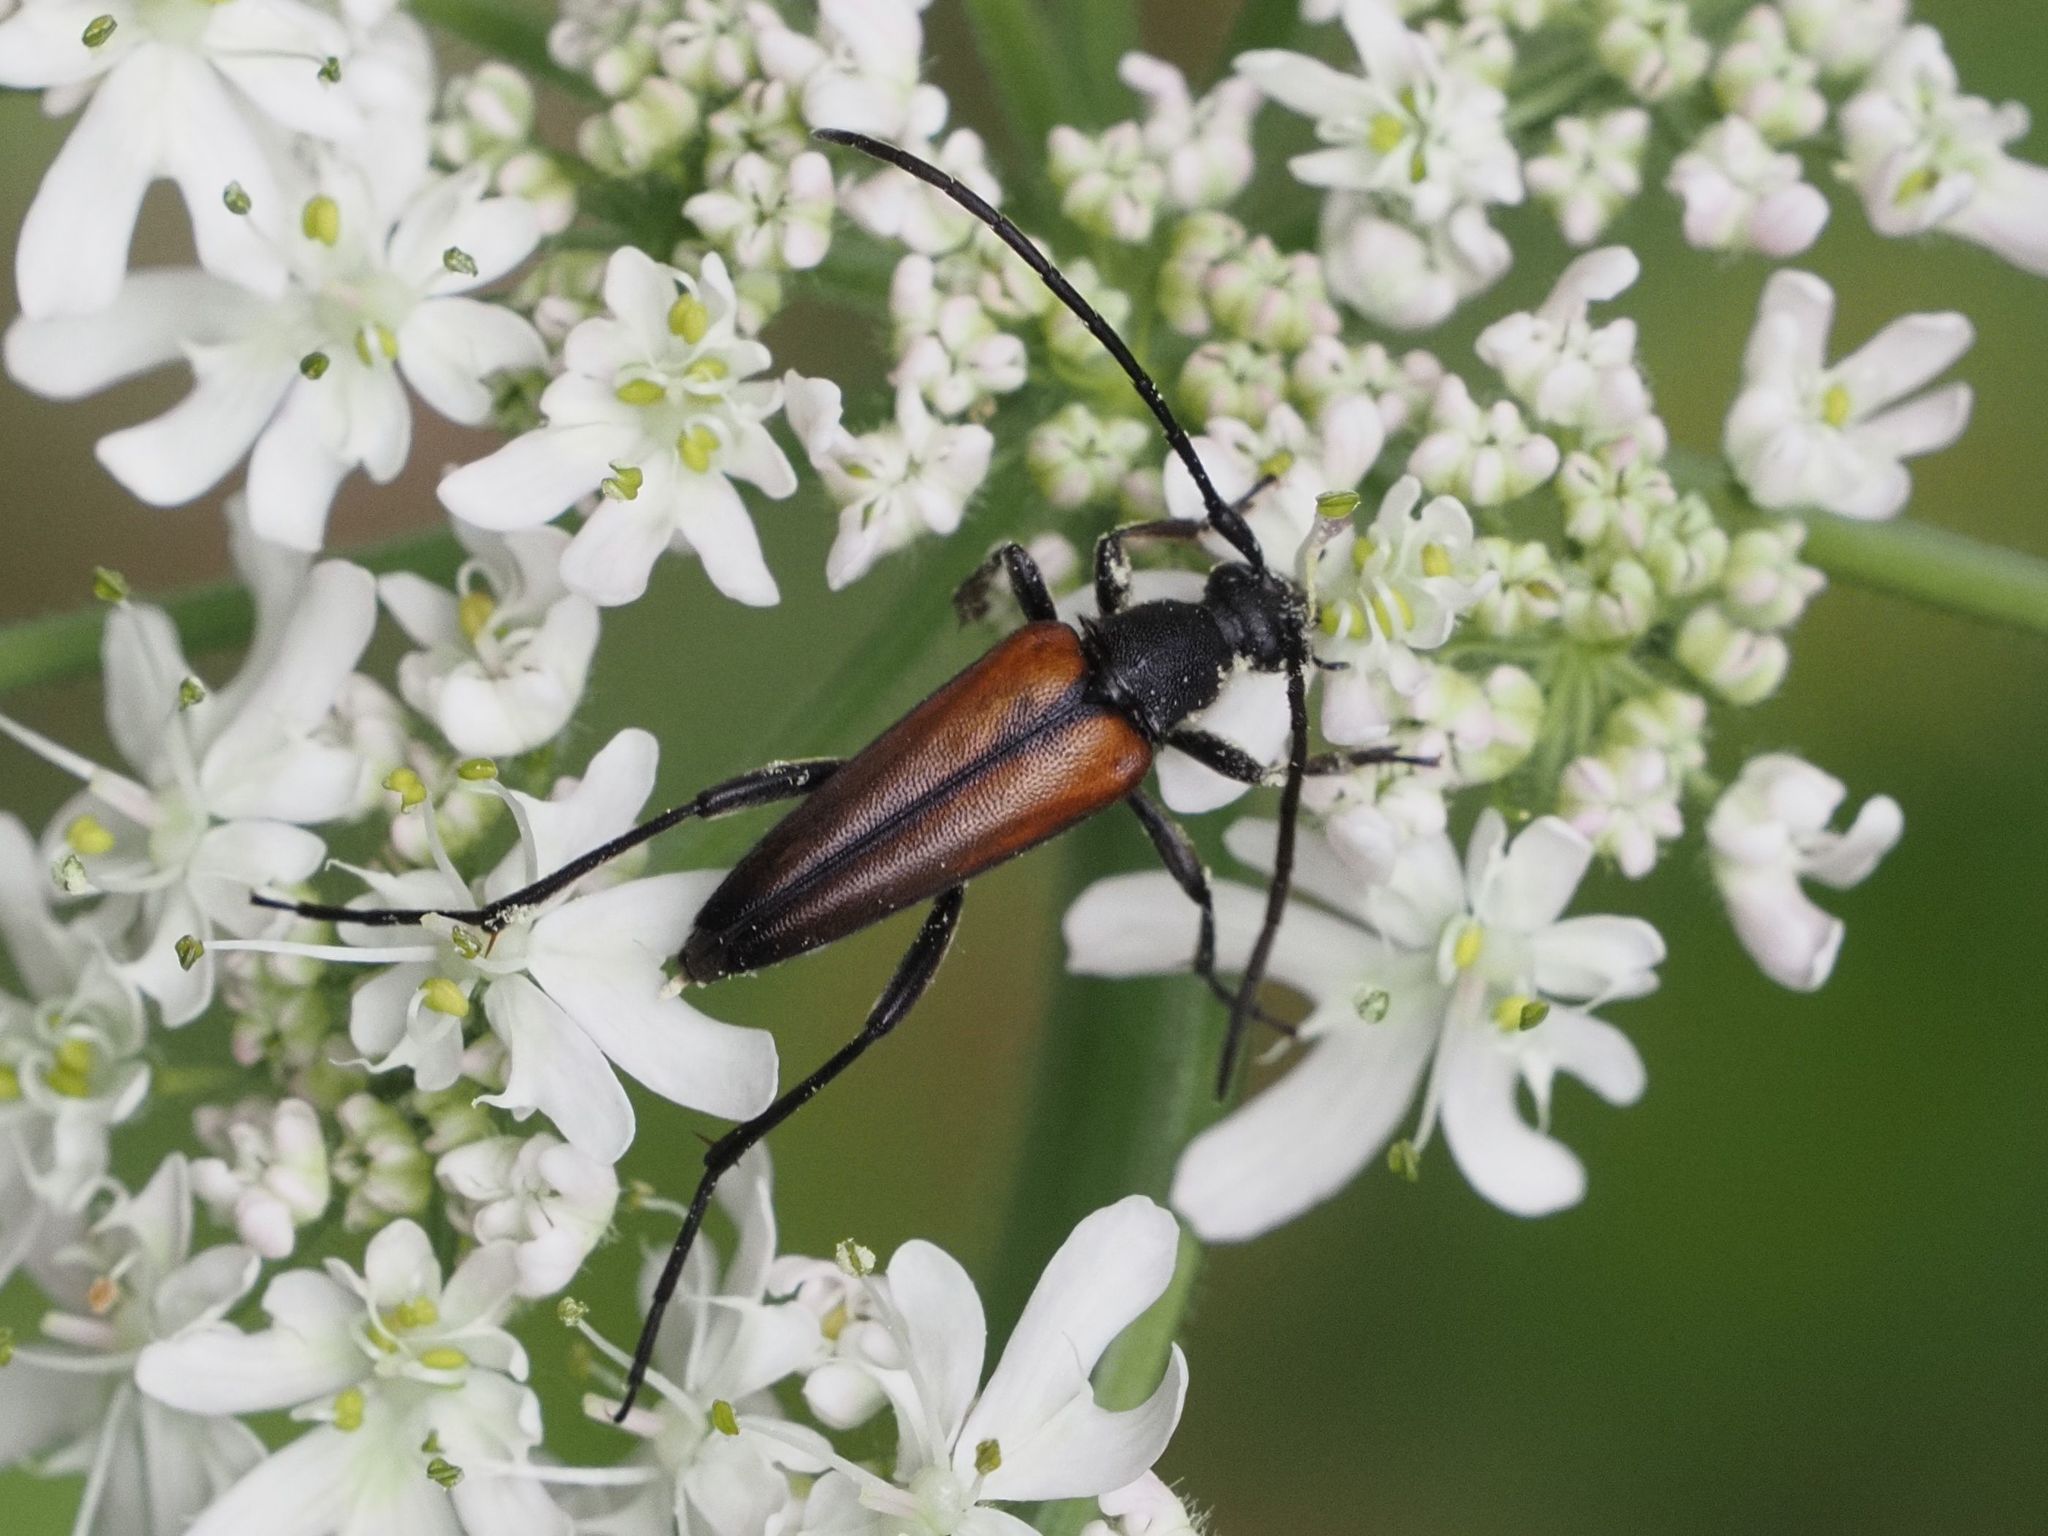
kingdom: Animalia
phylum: Arthropoda
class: Insecta
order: Coleoptera
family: Cerambycidae
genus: Stenurella
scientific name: Stenurella melanura
